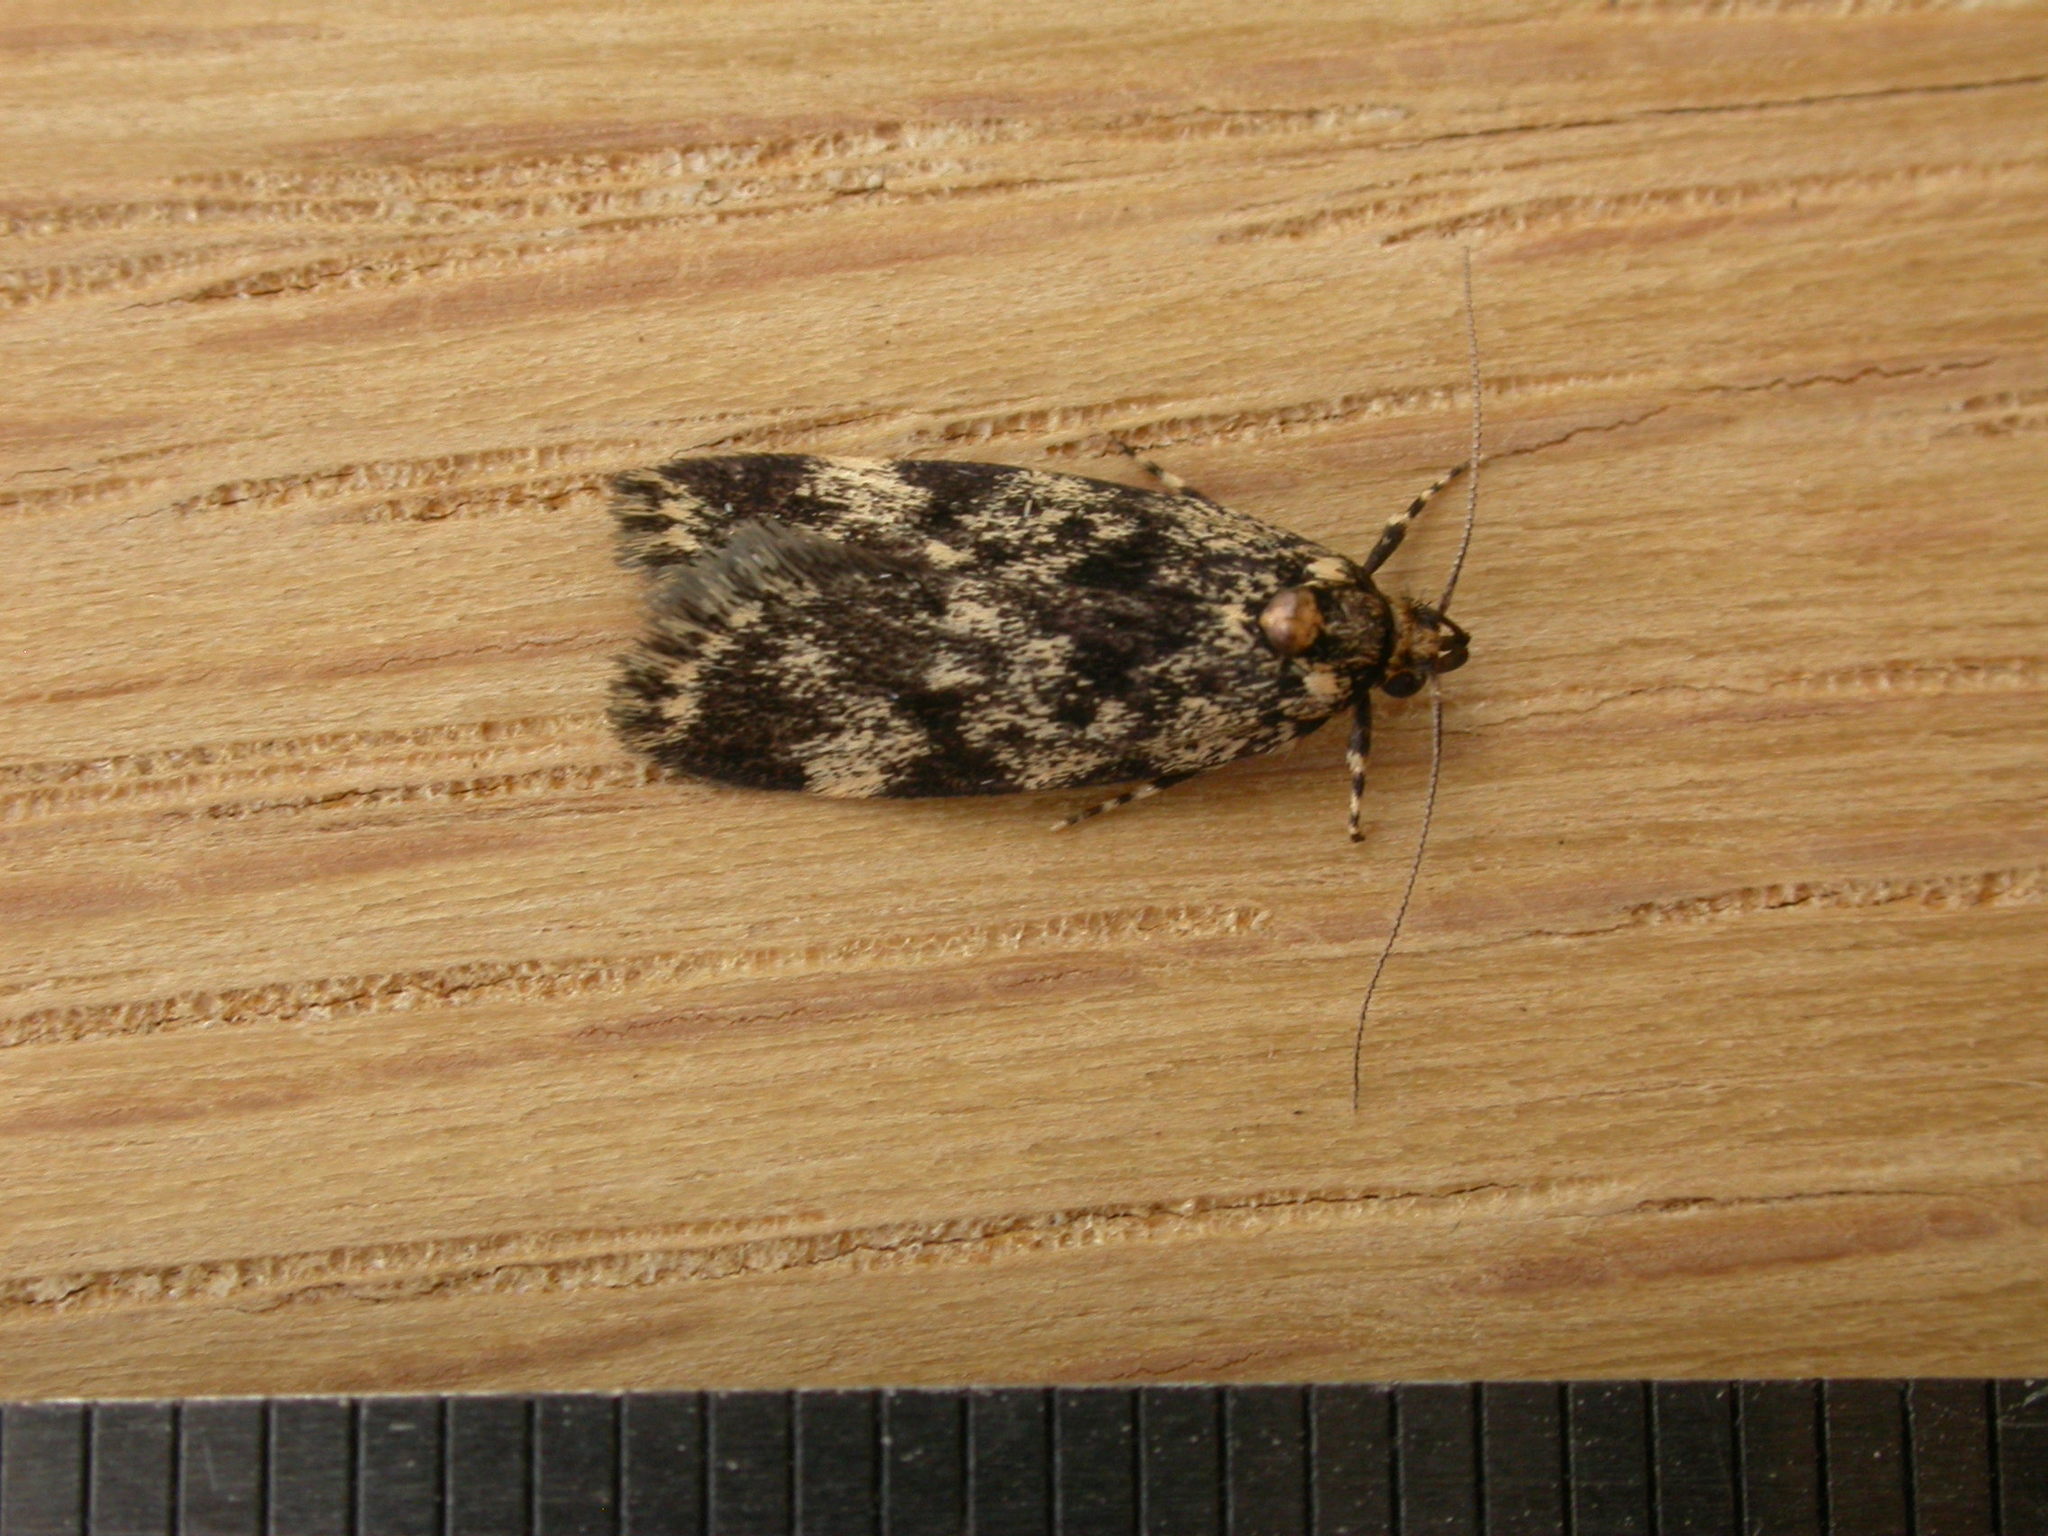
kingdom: Animalia
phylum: Arthropoda
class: Insecta
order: Lepidoptera
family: Oecophoridae
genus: Barea
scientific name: Barea codrella
